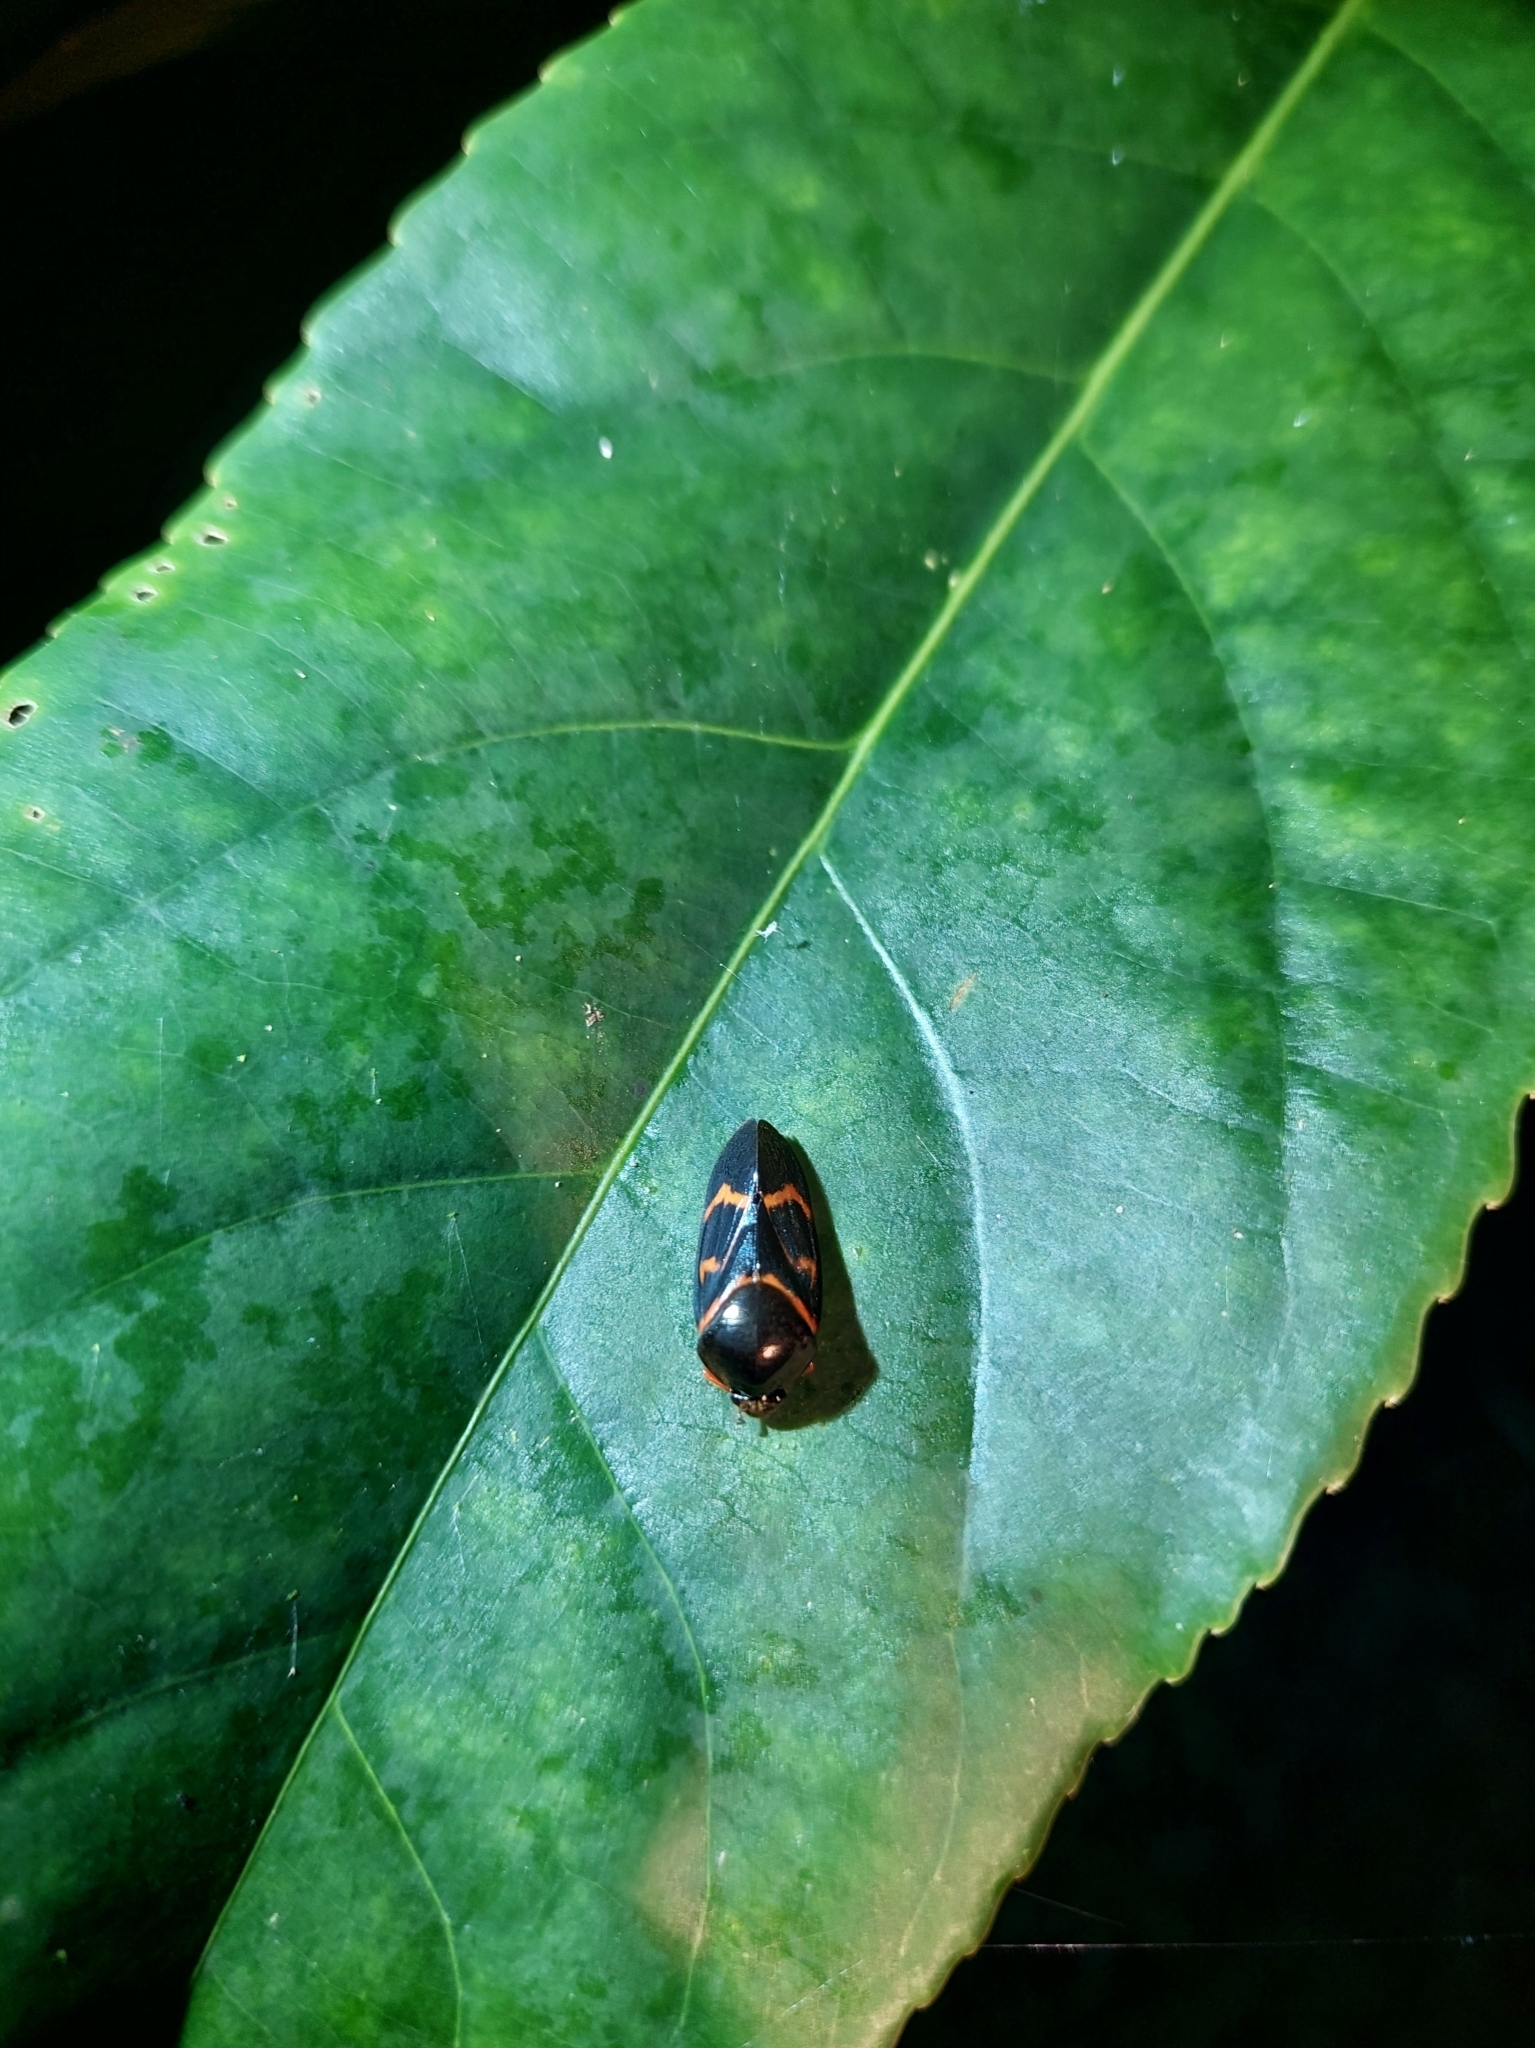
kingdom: Animalia
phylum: Arthropoda
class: Insecta
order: Hemiptera
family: Cercopidae
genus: Okiscarta
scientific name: Okiscarta uchidae
